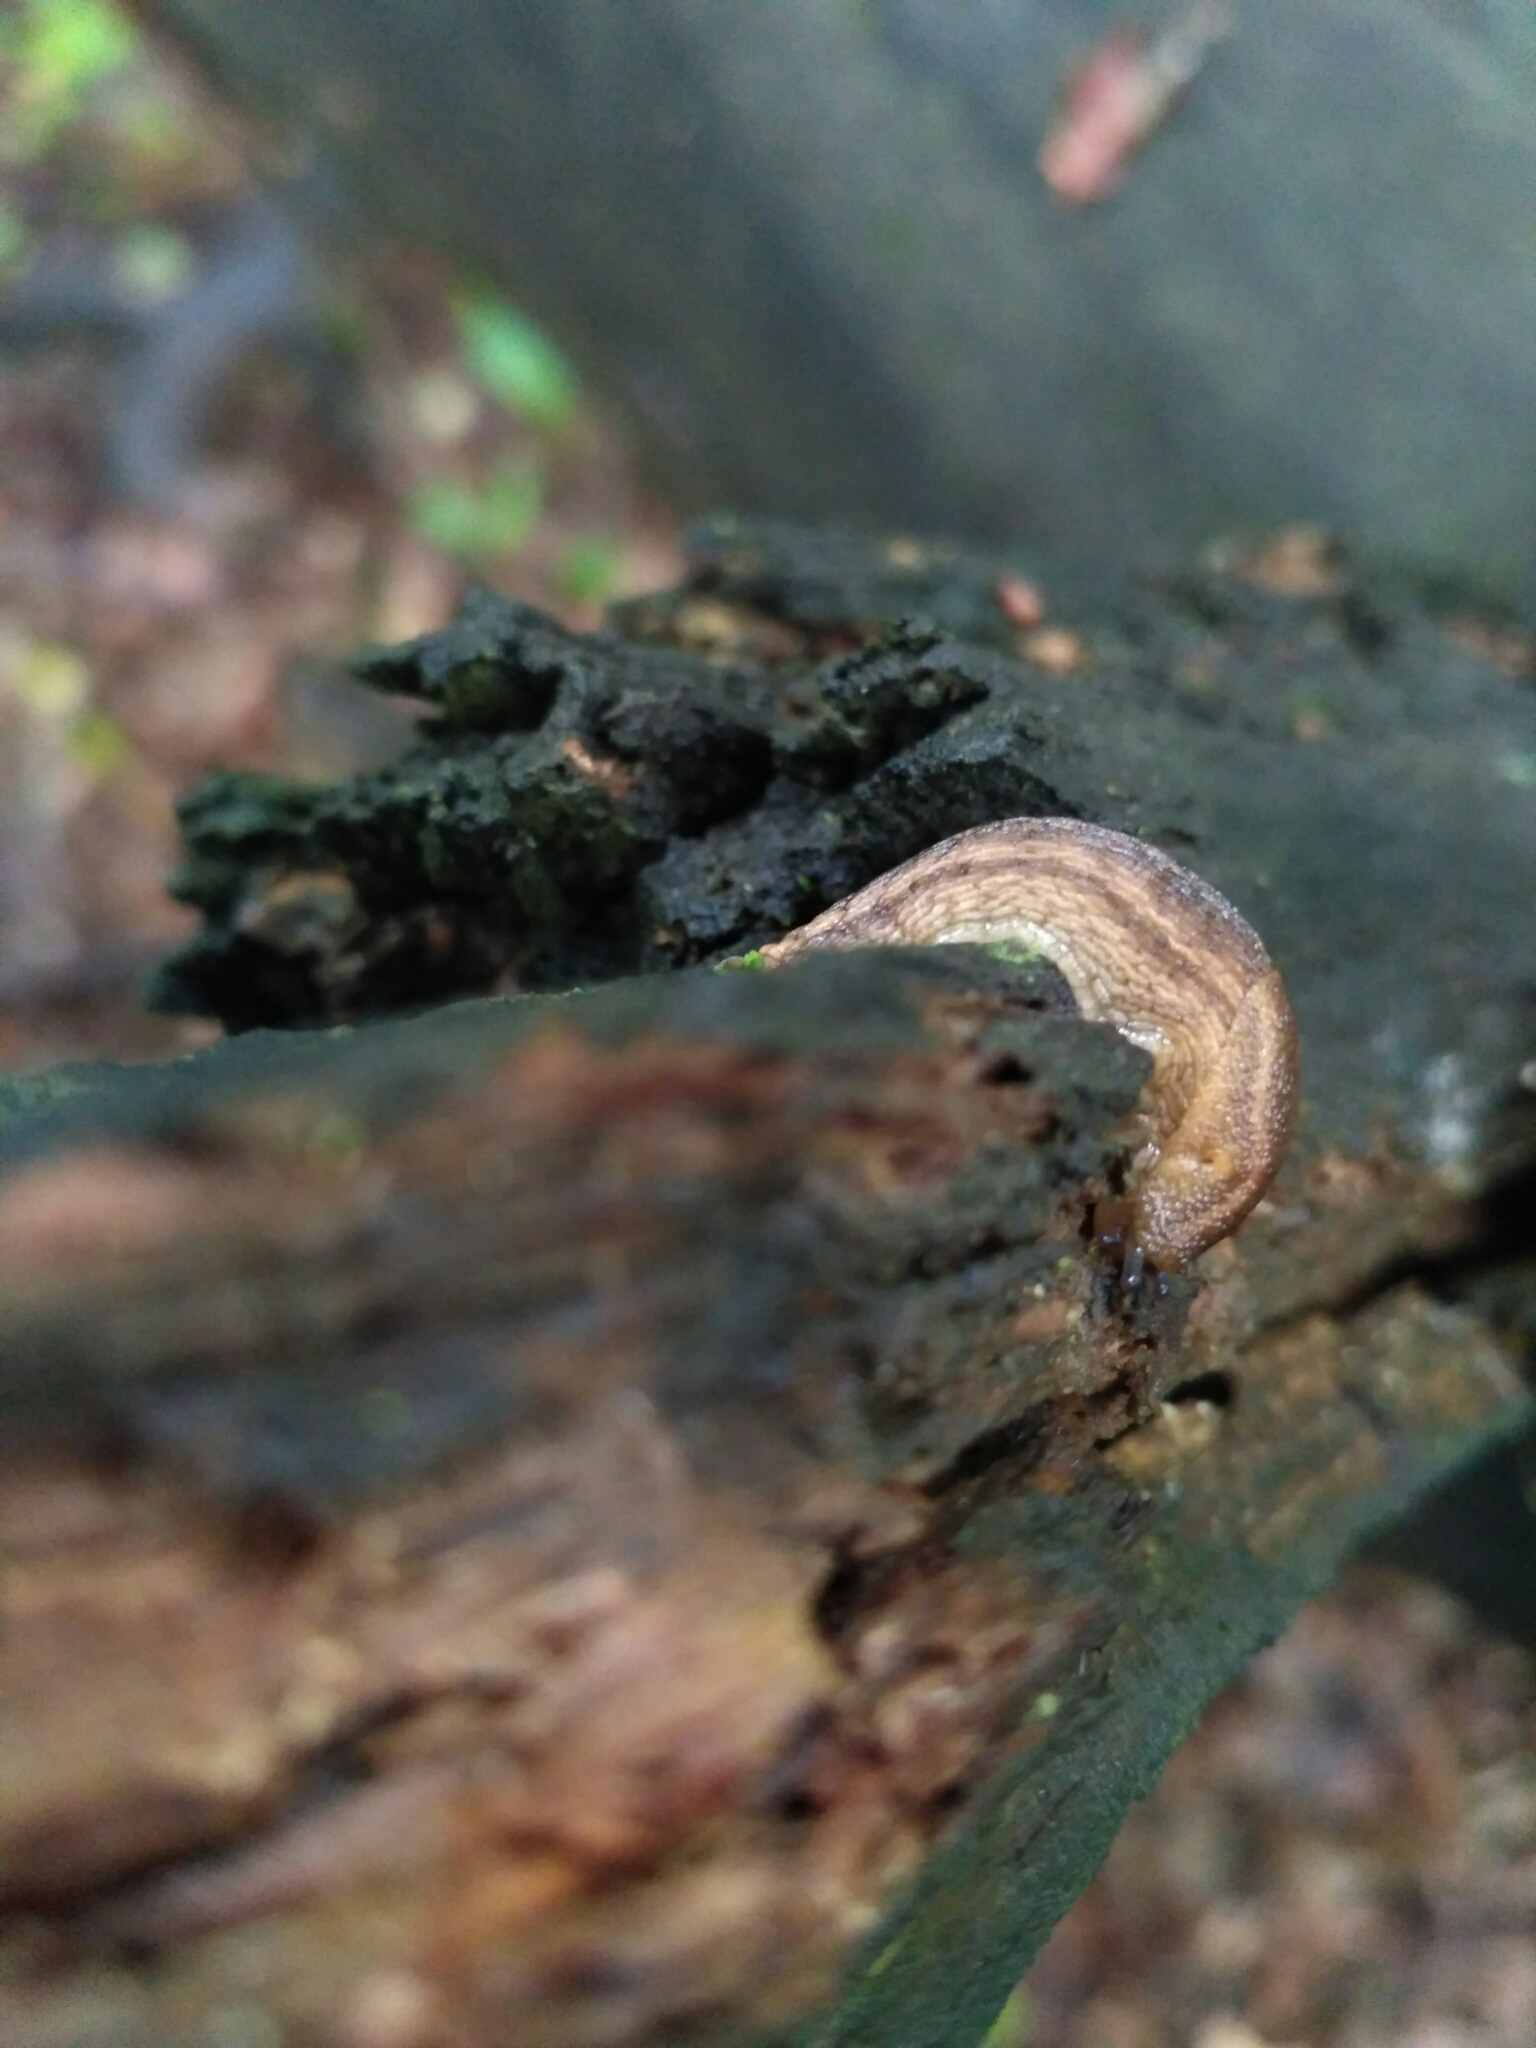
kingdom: Animalia
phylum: Mollusca
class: Gastropoda
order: Stylommatophora
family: Arionidae
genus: Arion
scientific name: Arion fuscus
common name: Northern dusky slug
